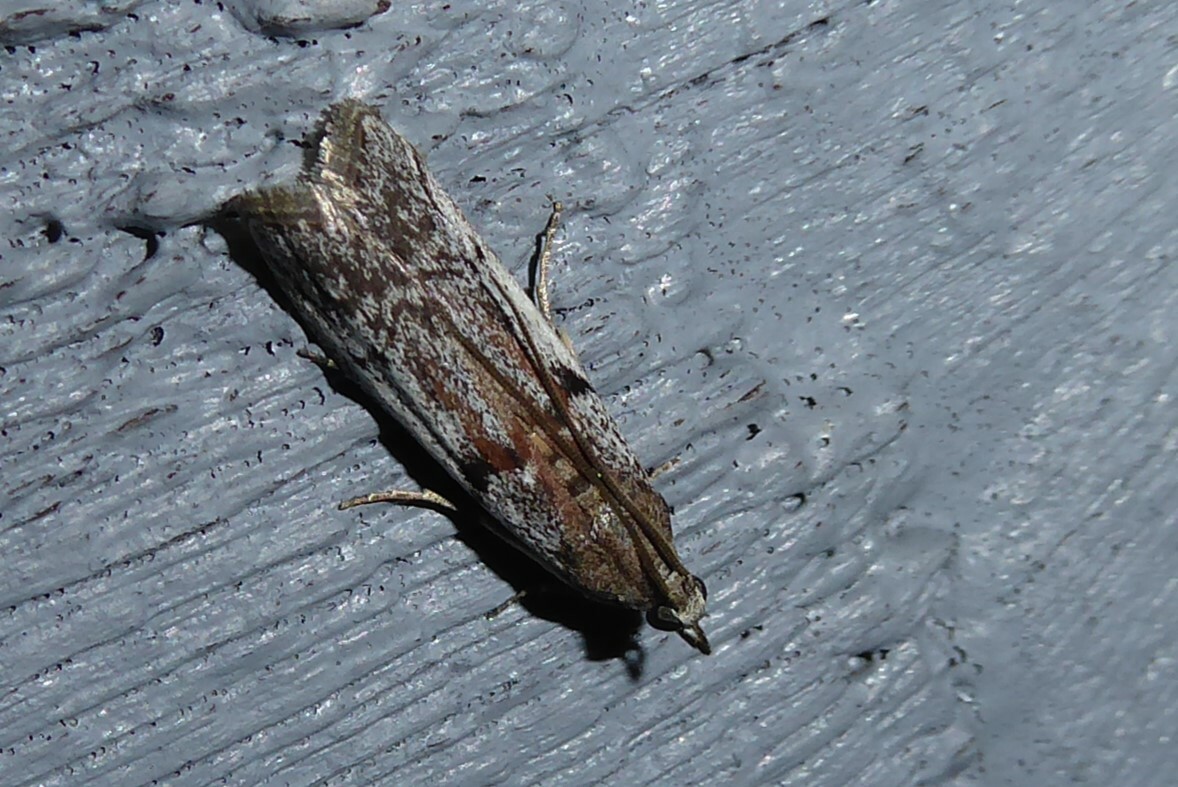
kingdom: Animalia
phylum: Arthropoda
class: Insecta
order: Lepidoptera
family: Pyralidae
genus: Patagoniodes
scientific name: Patagoniodes farinaria
